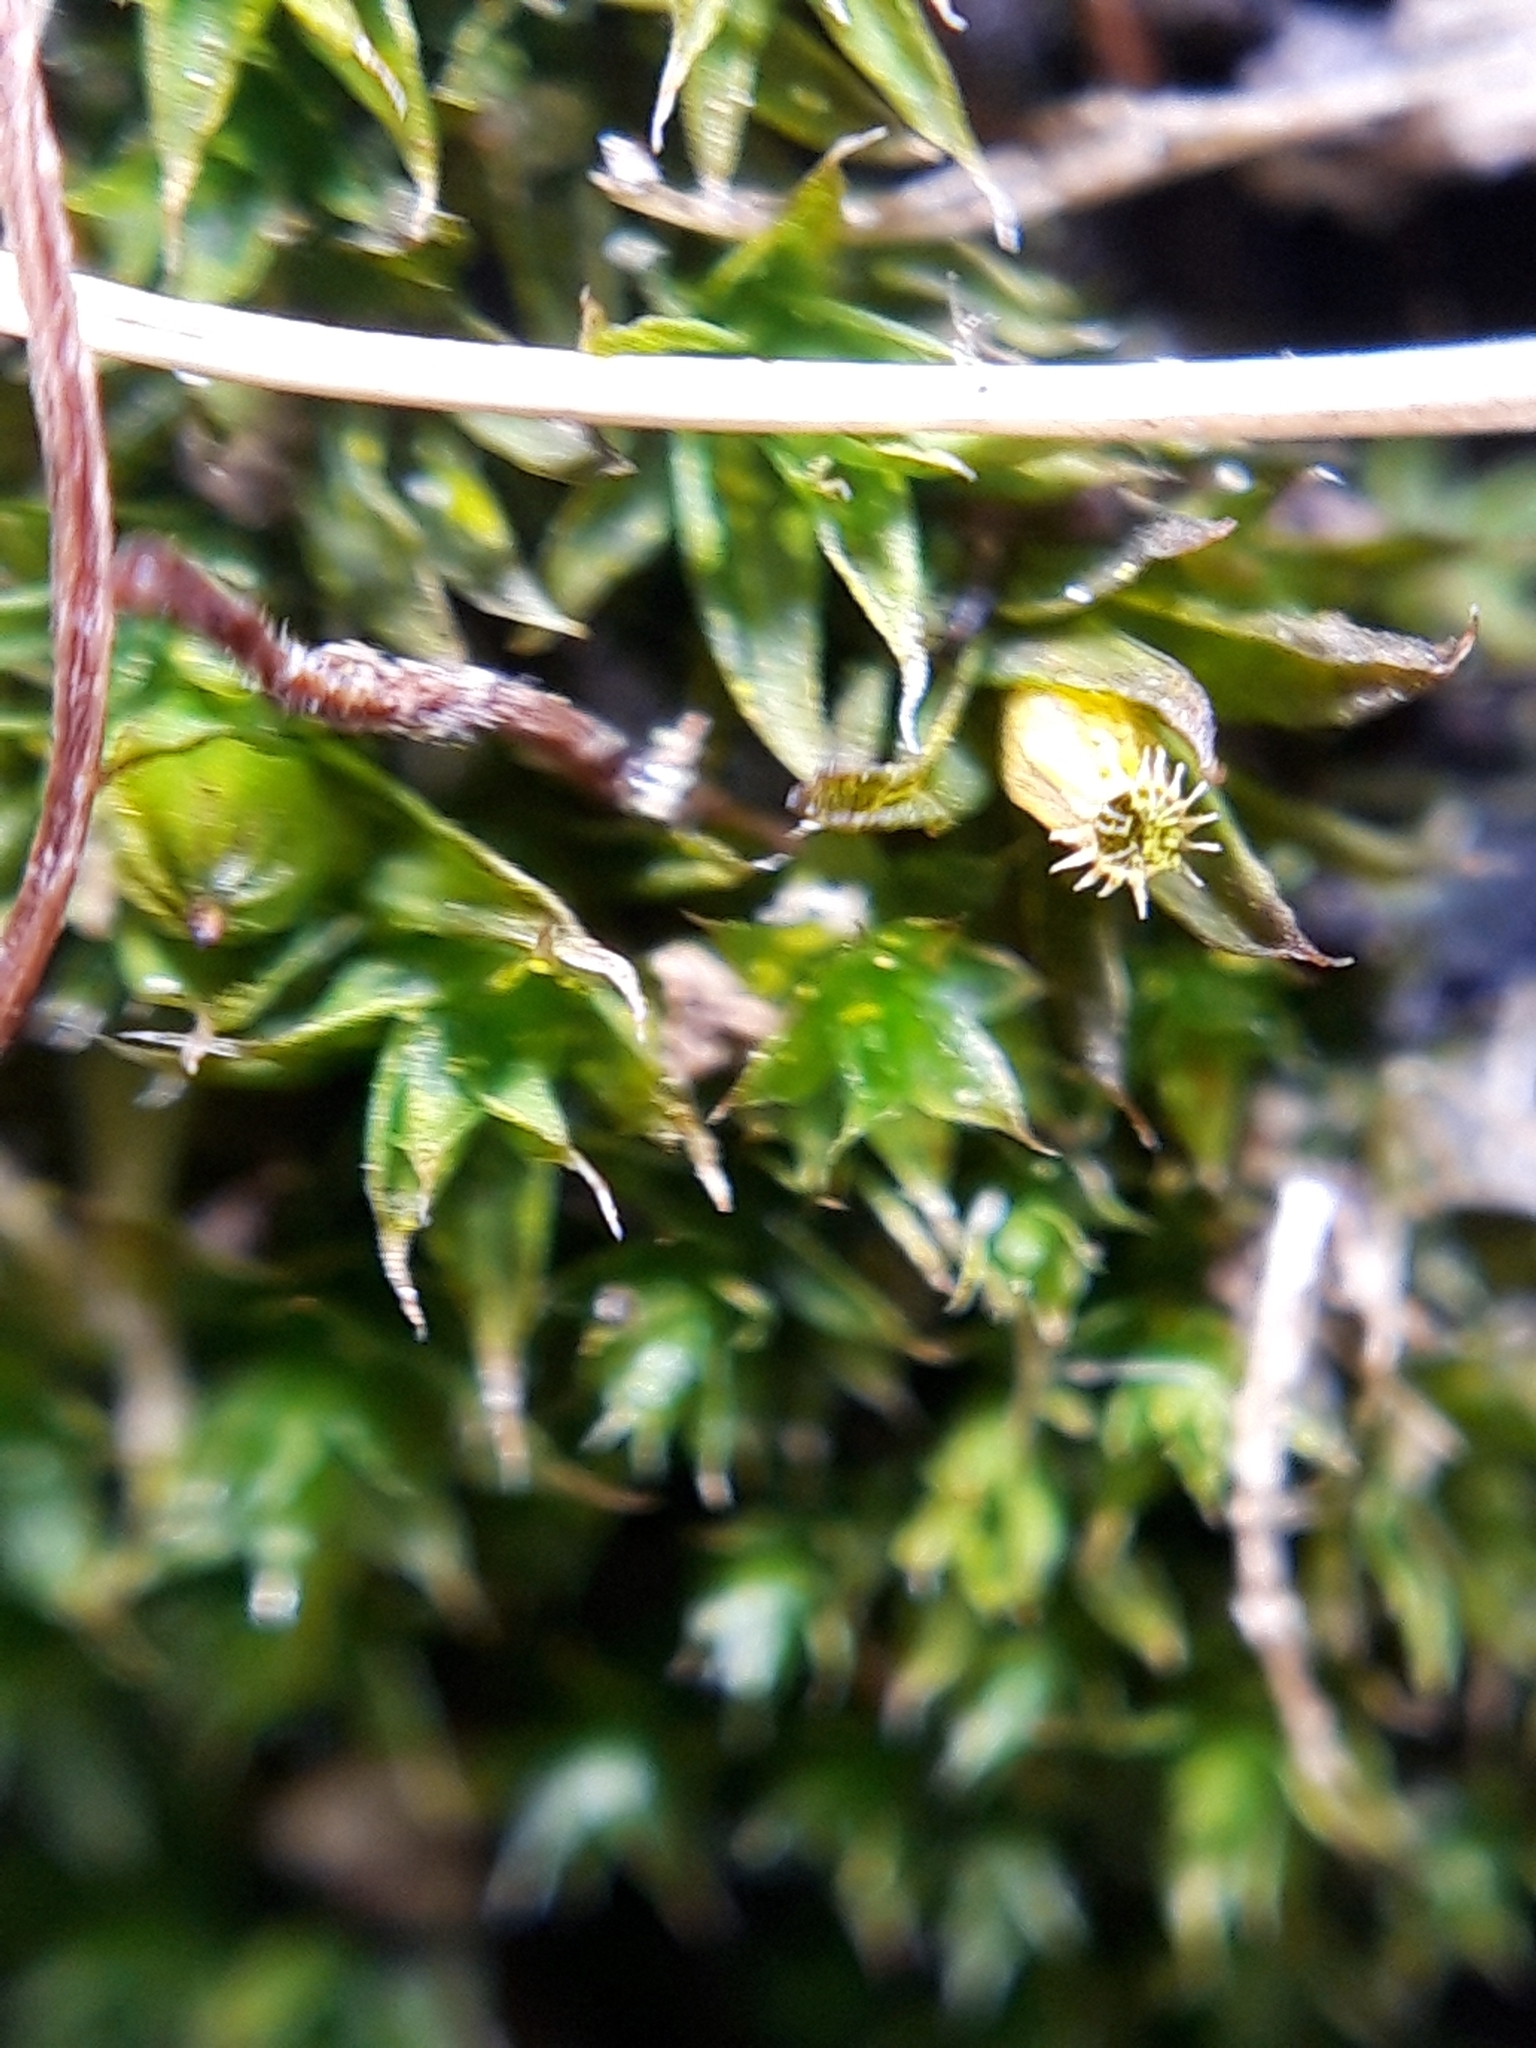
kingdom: Plantae
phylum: Bryophyta
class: Bryopsida
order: Orthotrichales
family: Orthotrichaceae
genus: Orthotrichum
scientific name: Orthotrichum diaphanum
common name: White-tipped bristle-moss
